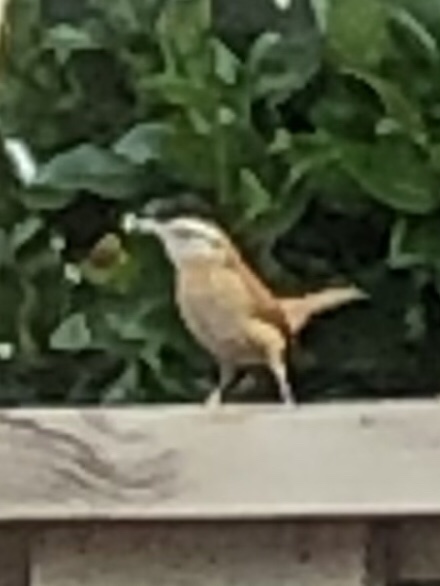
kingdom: Animalia
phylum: Chordata
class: Aves
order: Passeriformes
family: Troglodytidae
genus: Thryothorus
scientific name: Thryothorus ludovicianus
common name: Carolina wren
